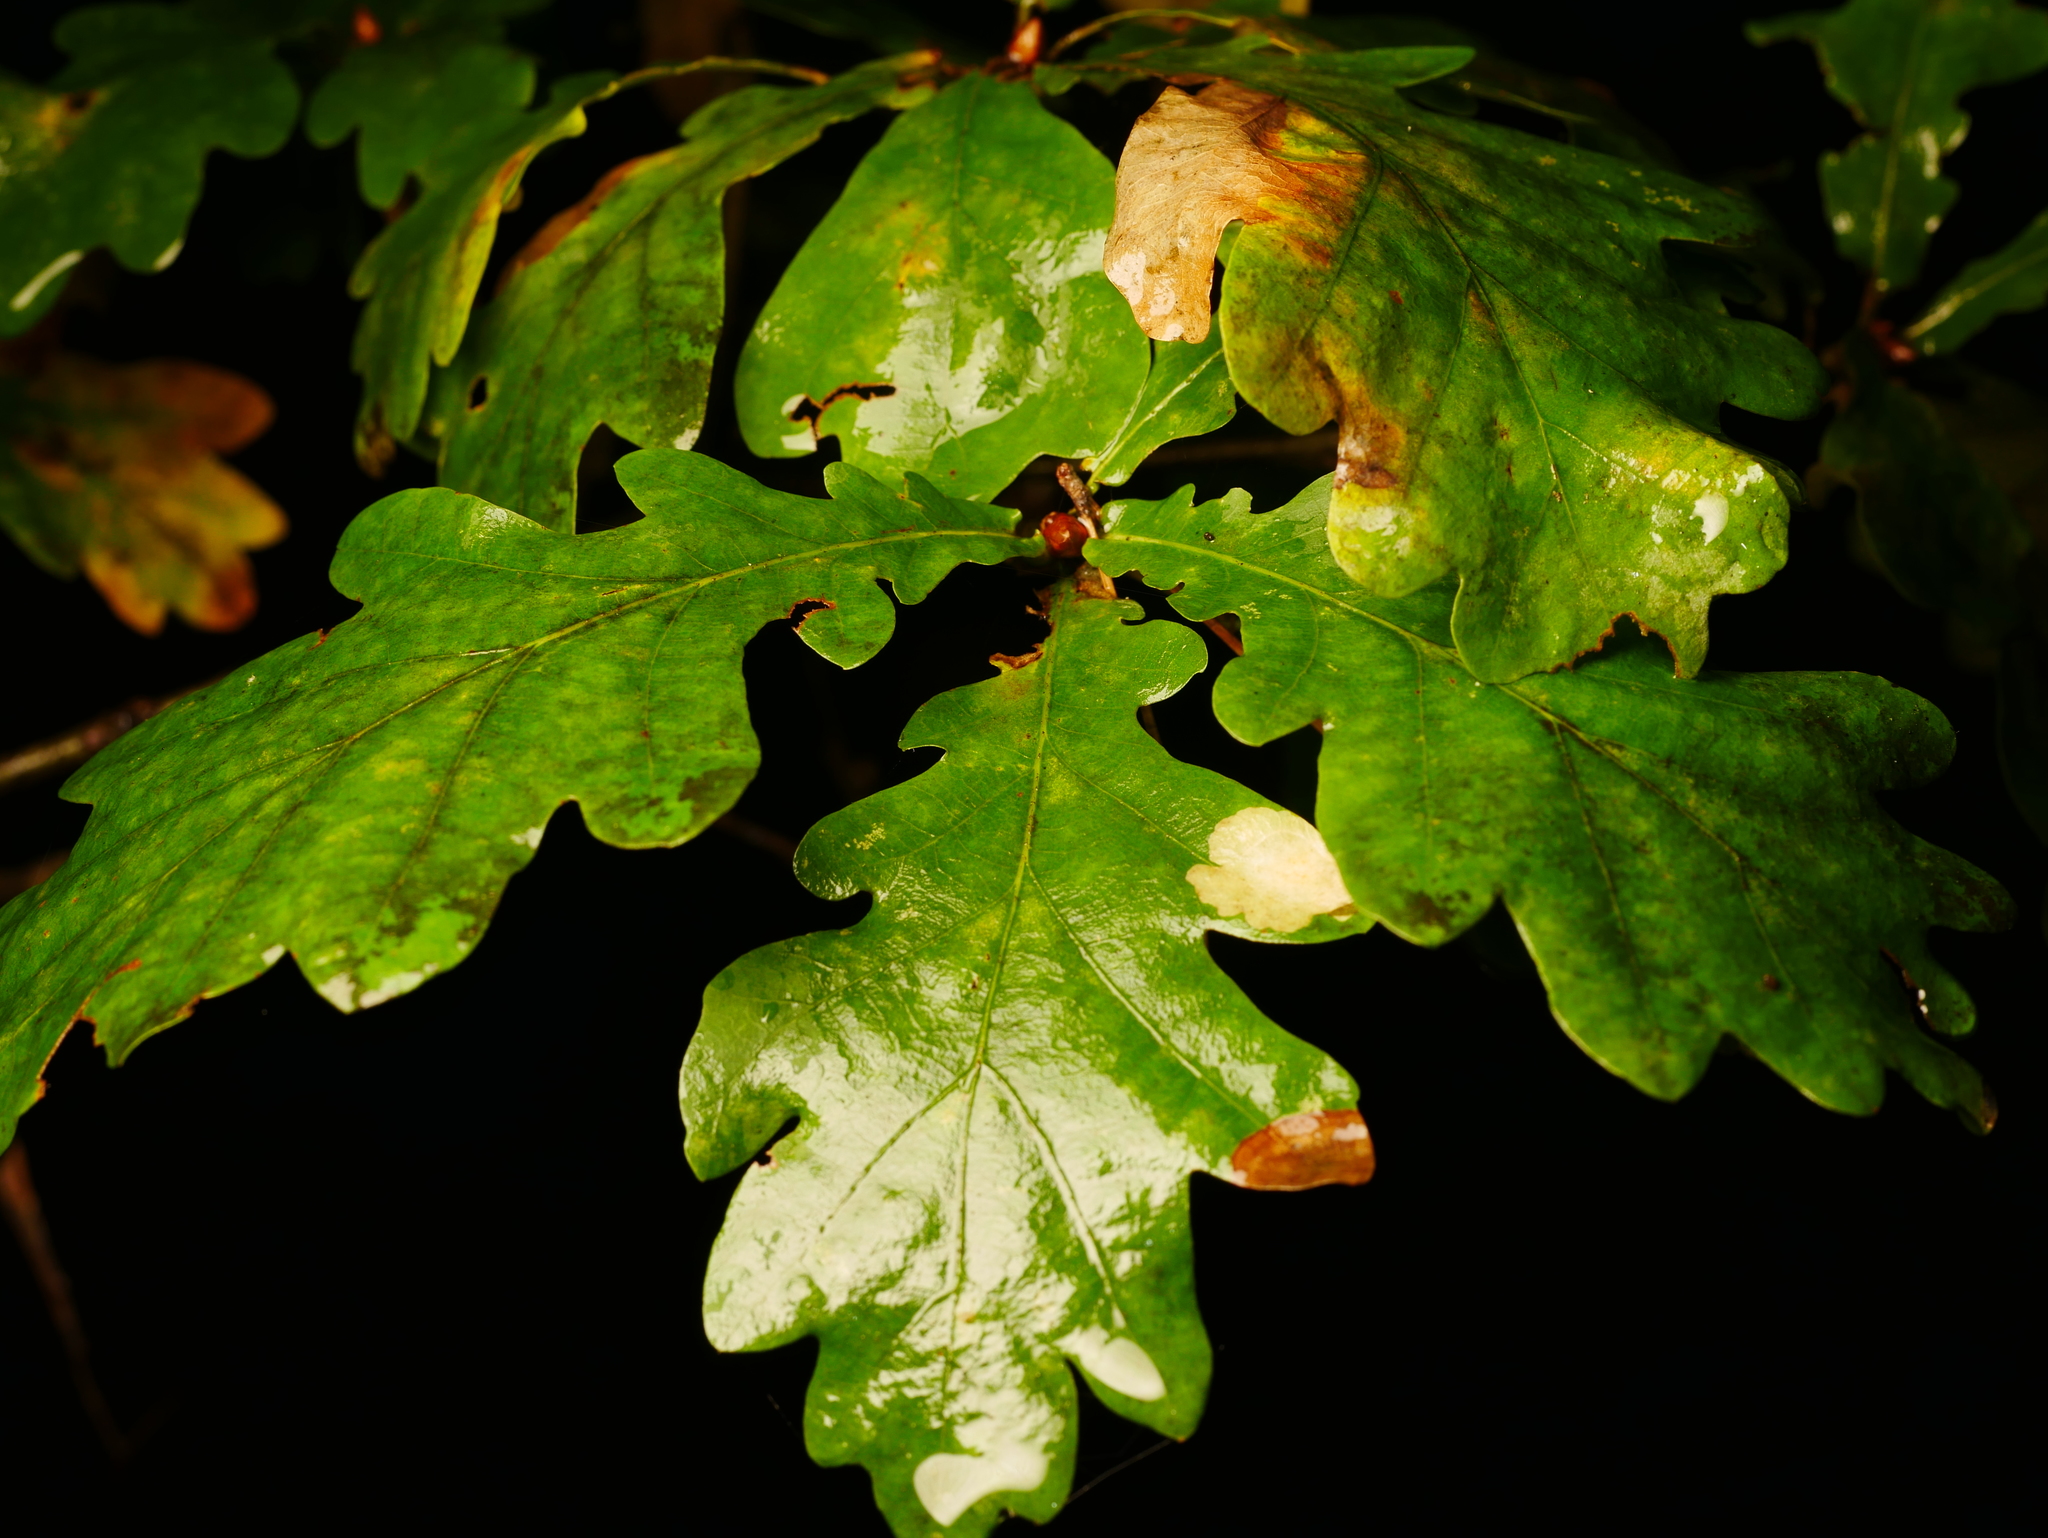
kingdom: Plantae
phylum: Tracheophyta
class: Magnoliopsida
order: Fagales
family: Fagaceae
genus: Quercus
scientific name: Quercus robur
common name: Pedunculate oak
